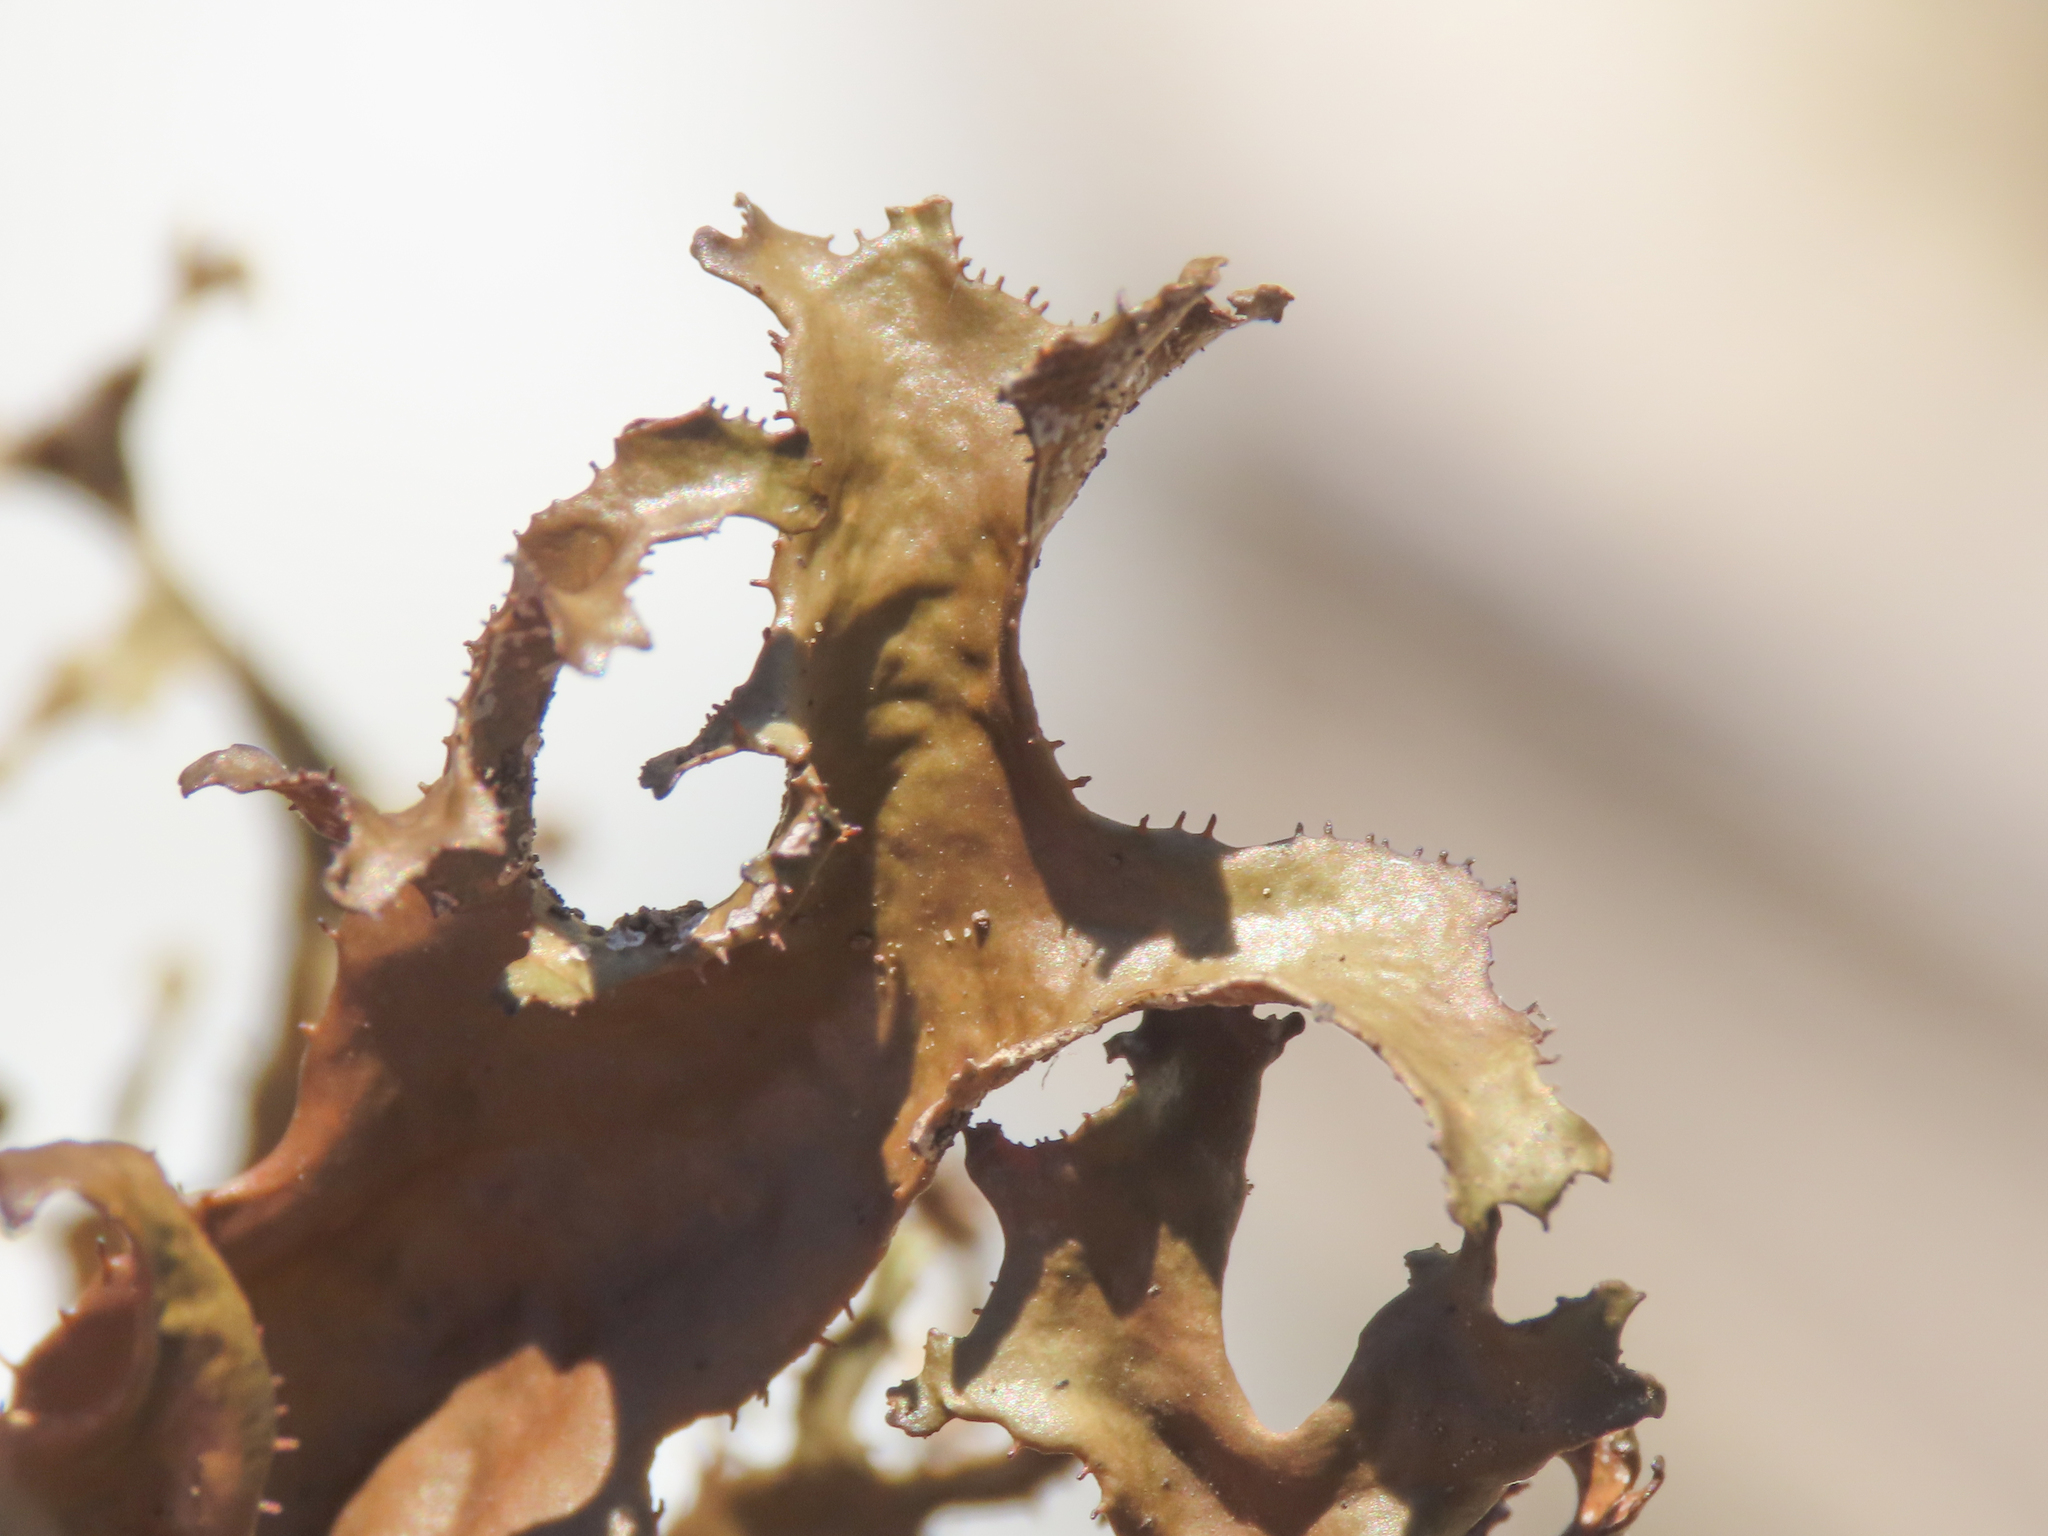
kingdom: Fungi
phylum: Ascomycota
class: Lecanoromycetes
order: Lecanorales
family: Parmeliaceae
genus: Cetraria
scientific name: Cetraria islandica
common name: Iceland lichen
